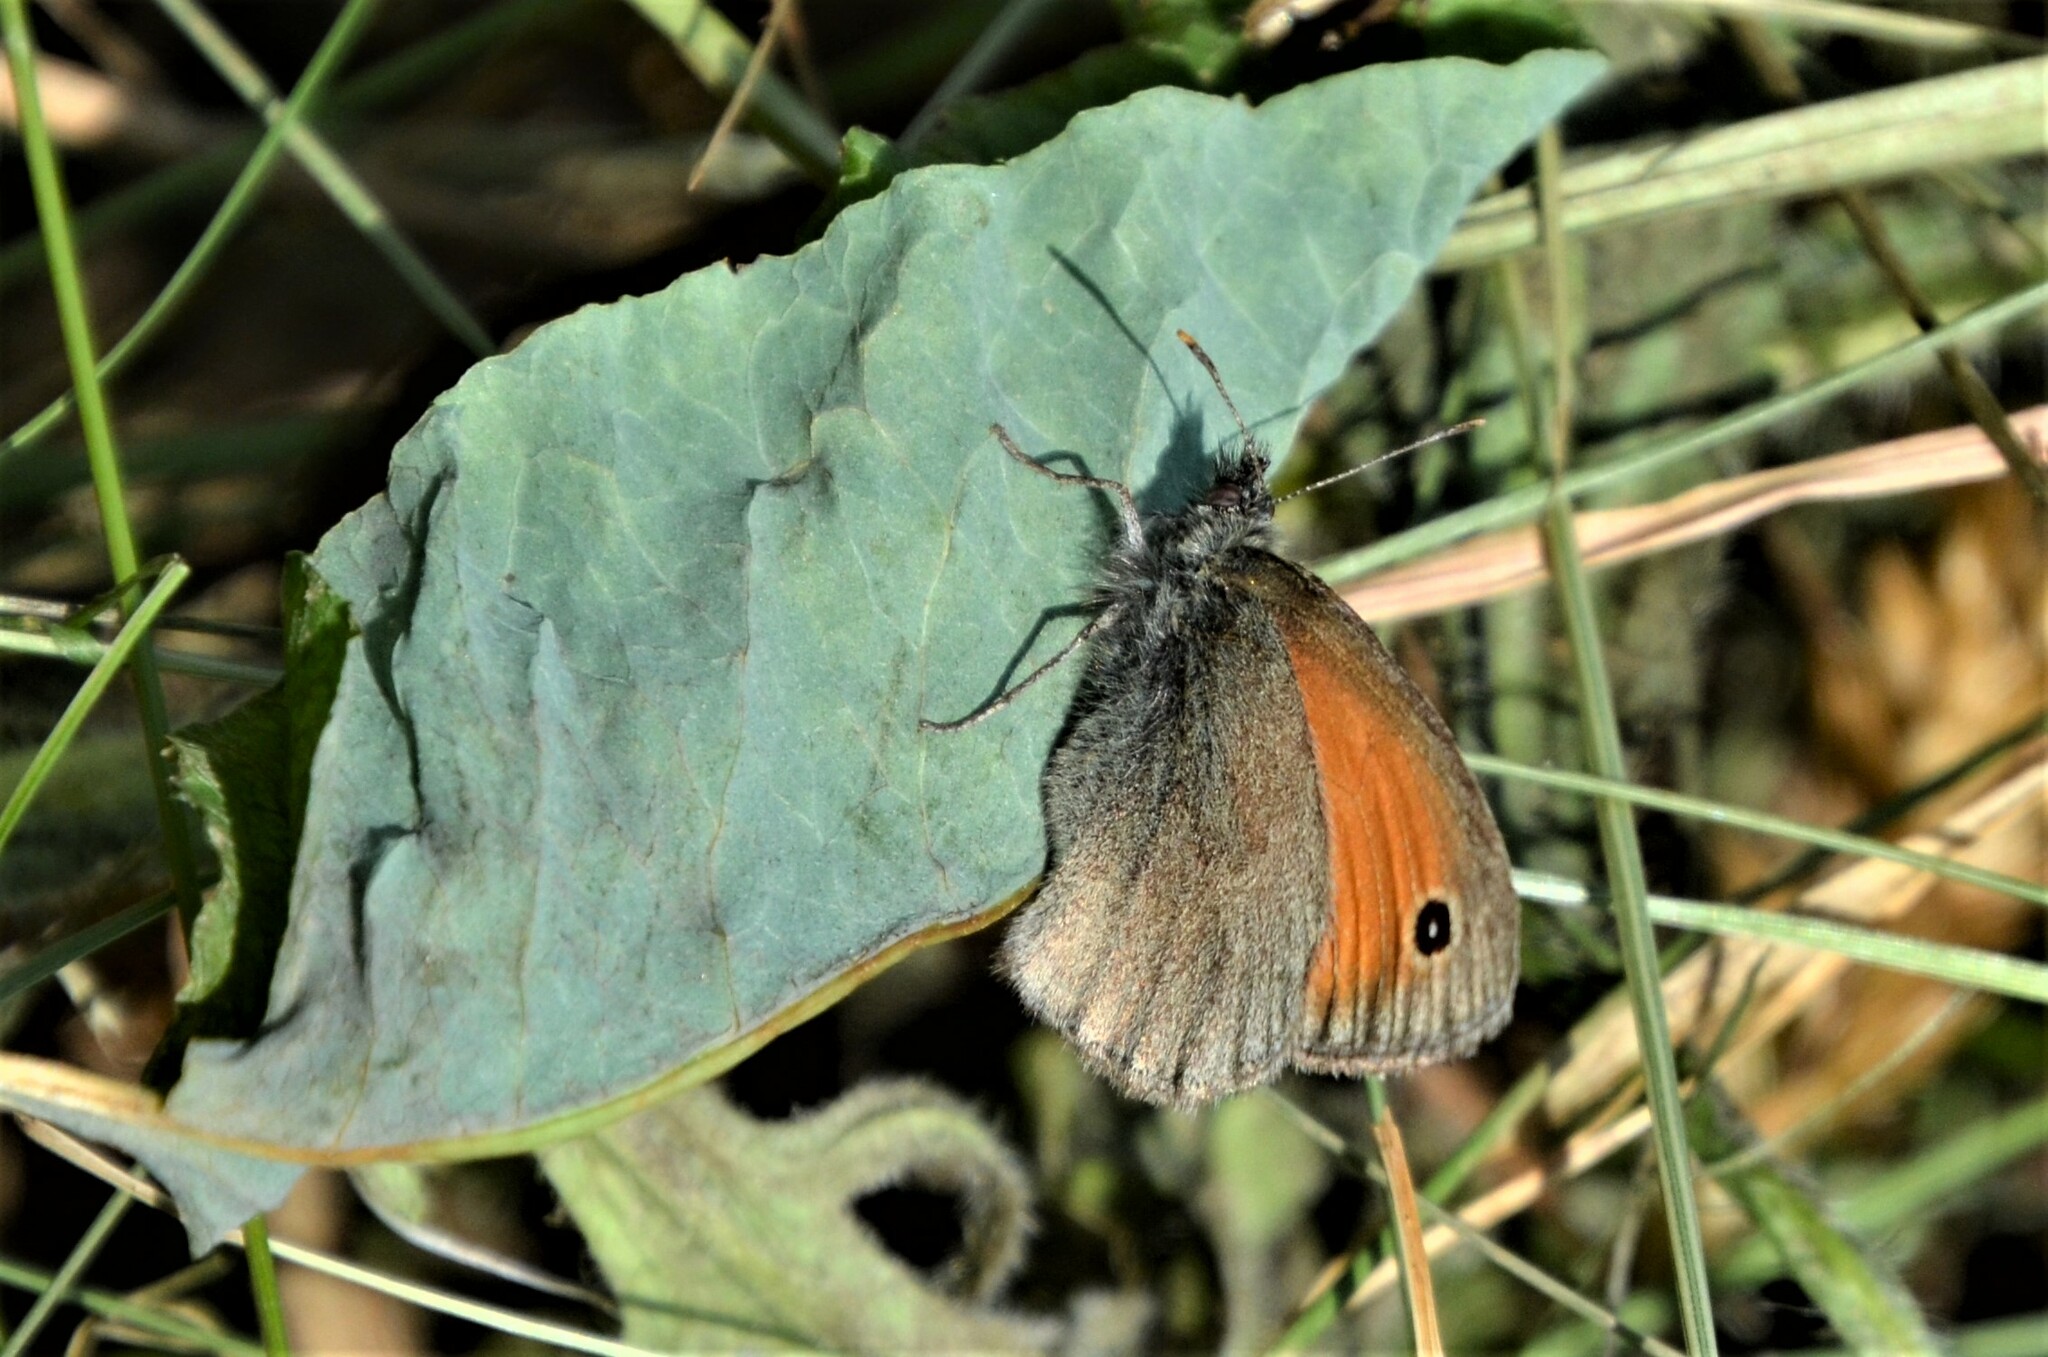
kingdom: Animalia
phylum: Arthropoda
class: Insecta
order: Lepidoptera
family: Nymphalidae
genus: Coenonympha
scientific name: Coenonympha pamphilus
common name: Small heath
